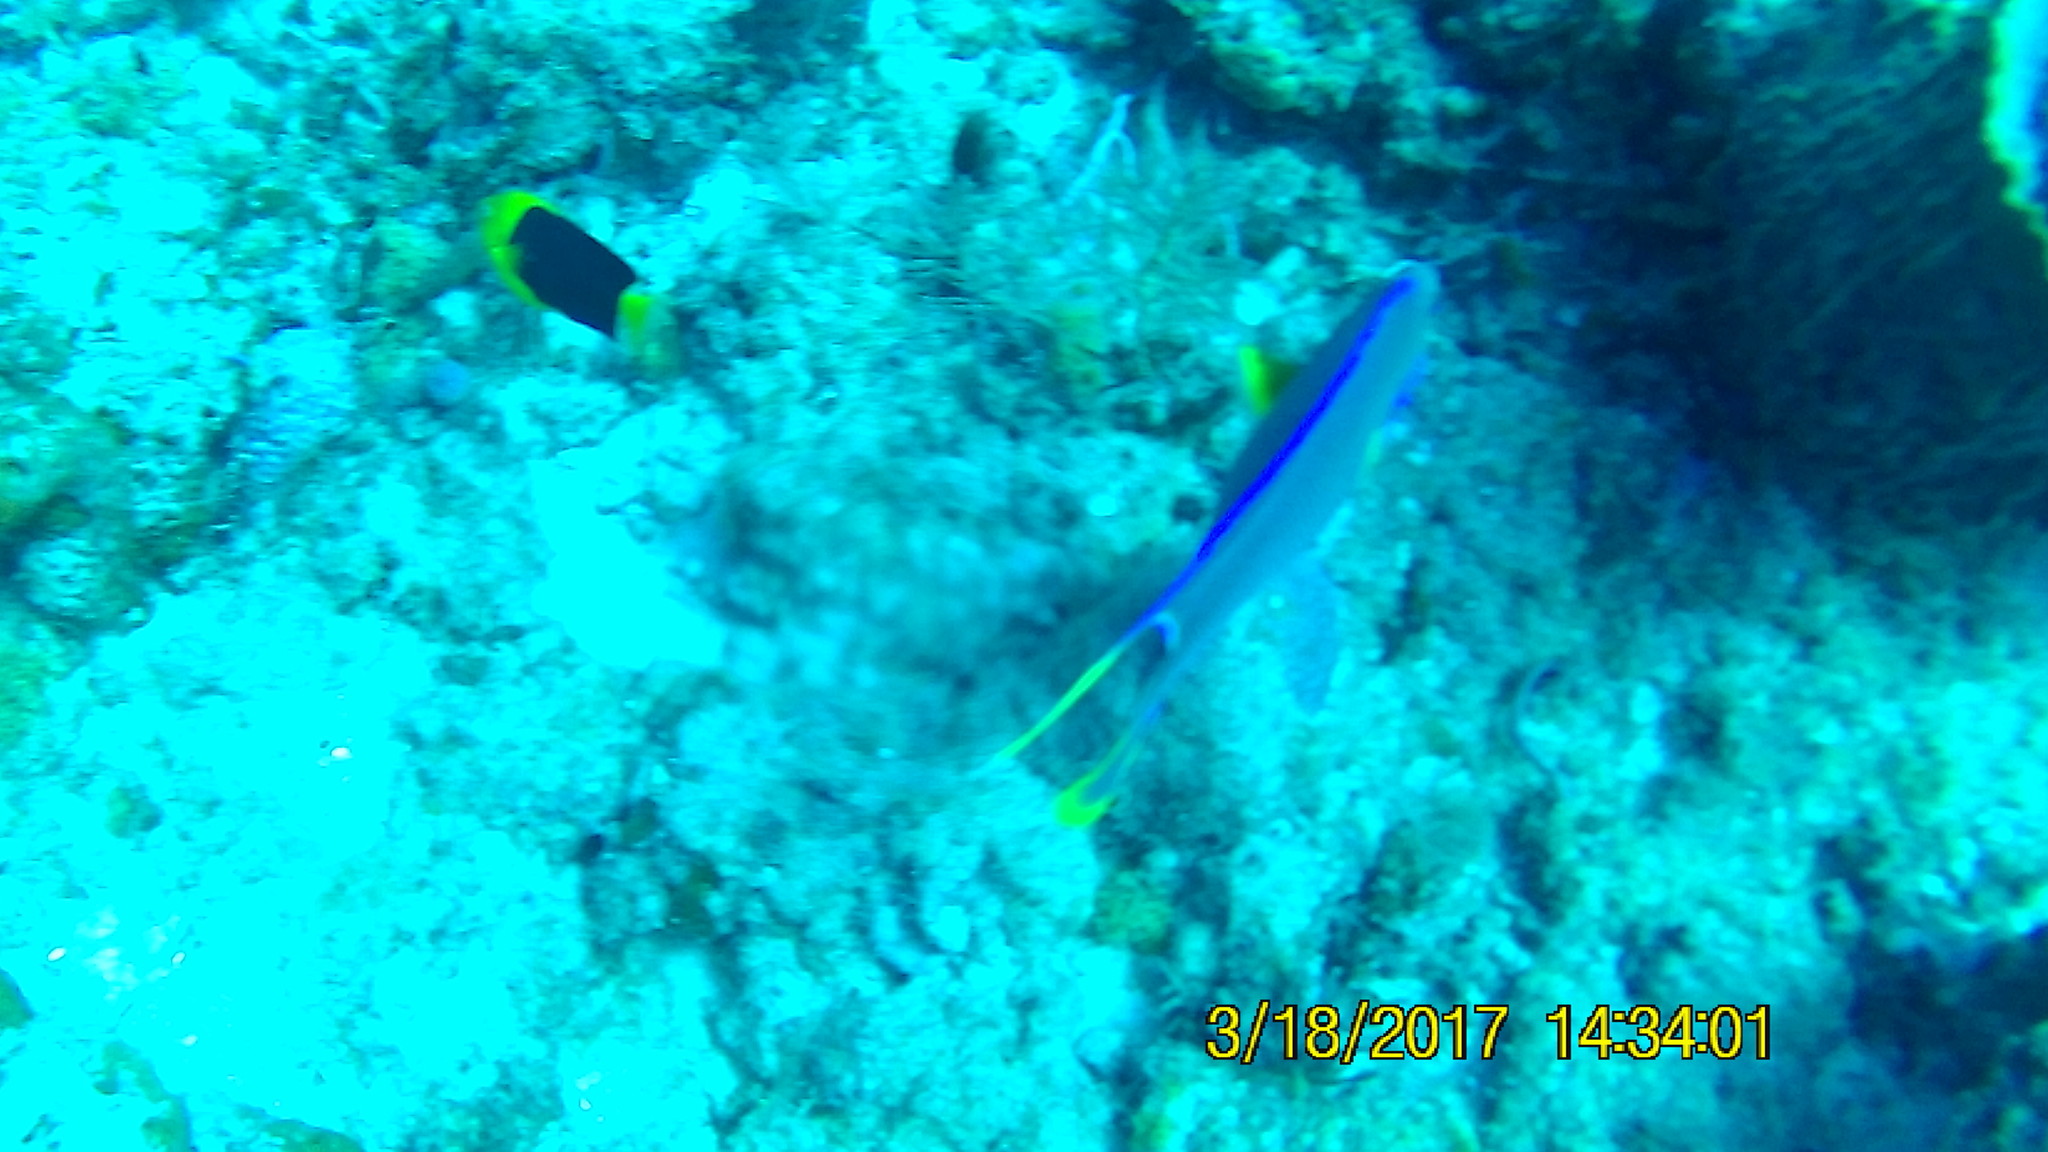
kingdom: Animalia
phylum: Chordata
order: Perciformes
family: Pomacanthidae
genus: Holacanthus
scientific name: Holacanthus tricolor
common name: Rock beauty
